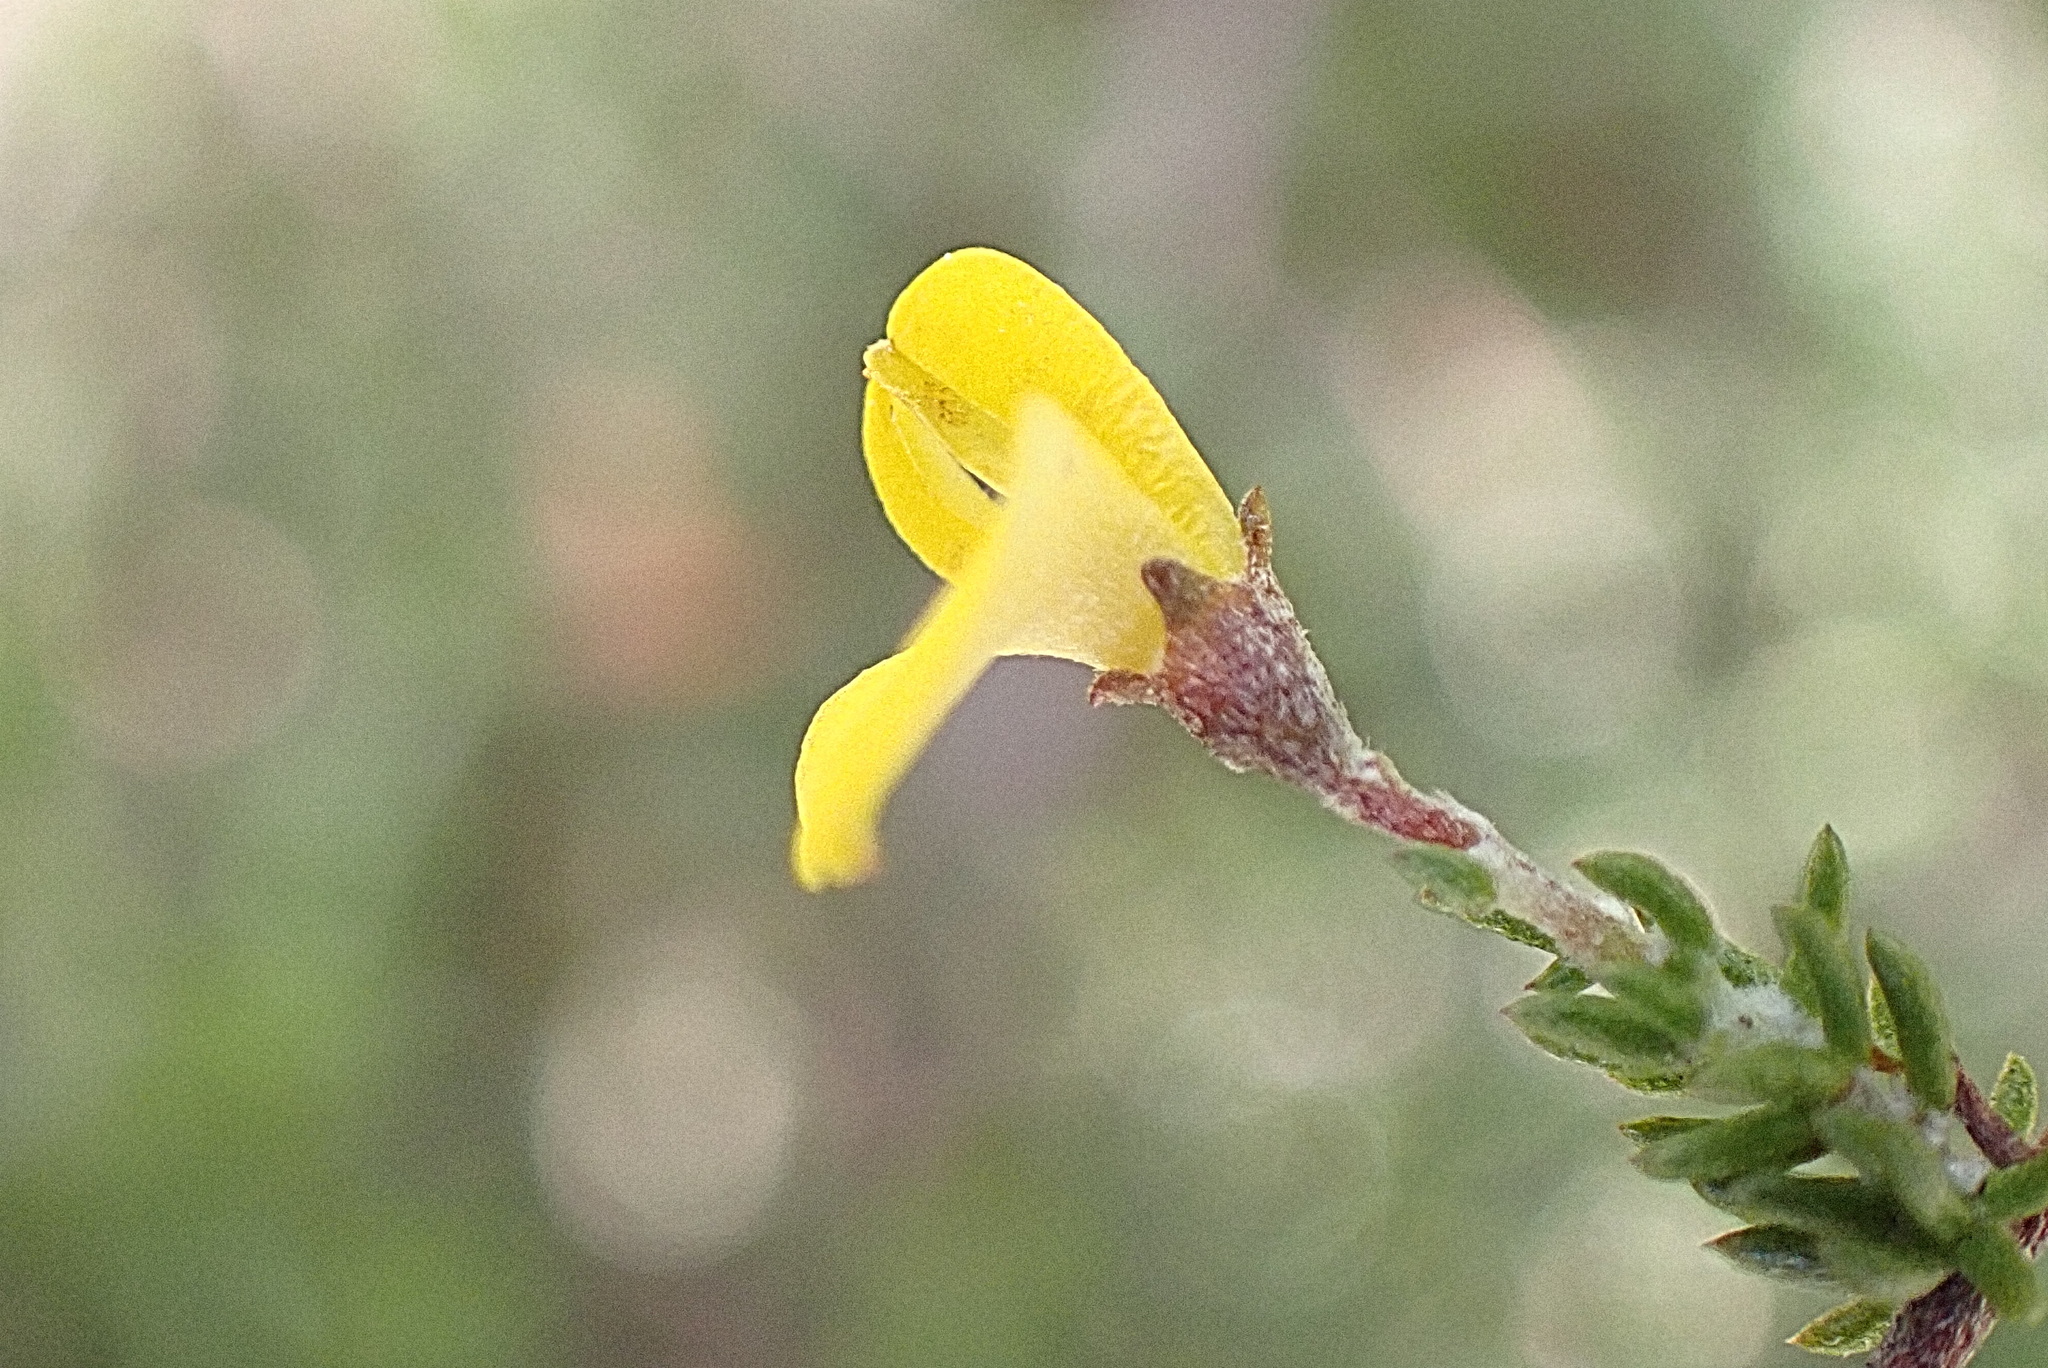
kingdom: Plantae
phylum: Tracheophyta
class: Magnoliopsida
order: Fabales
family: Fabaceae
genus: Aspalathus
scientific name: Aspalathus rubens
